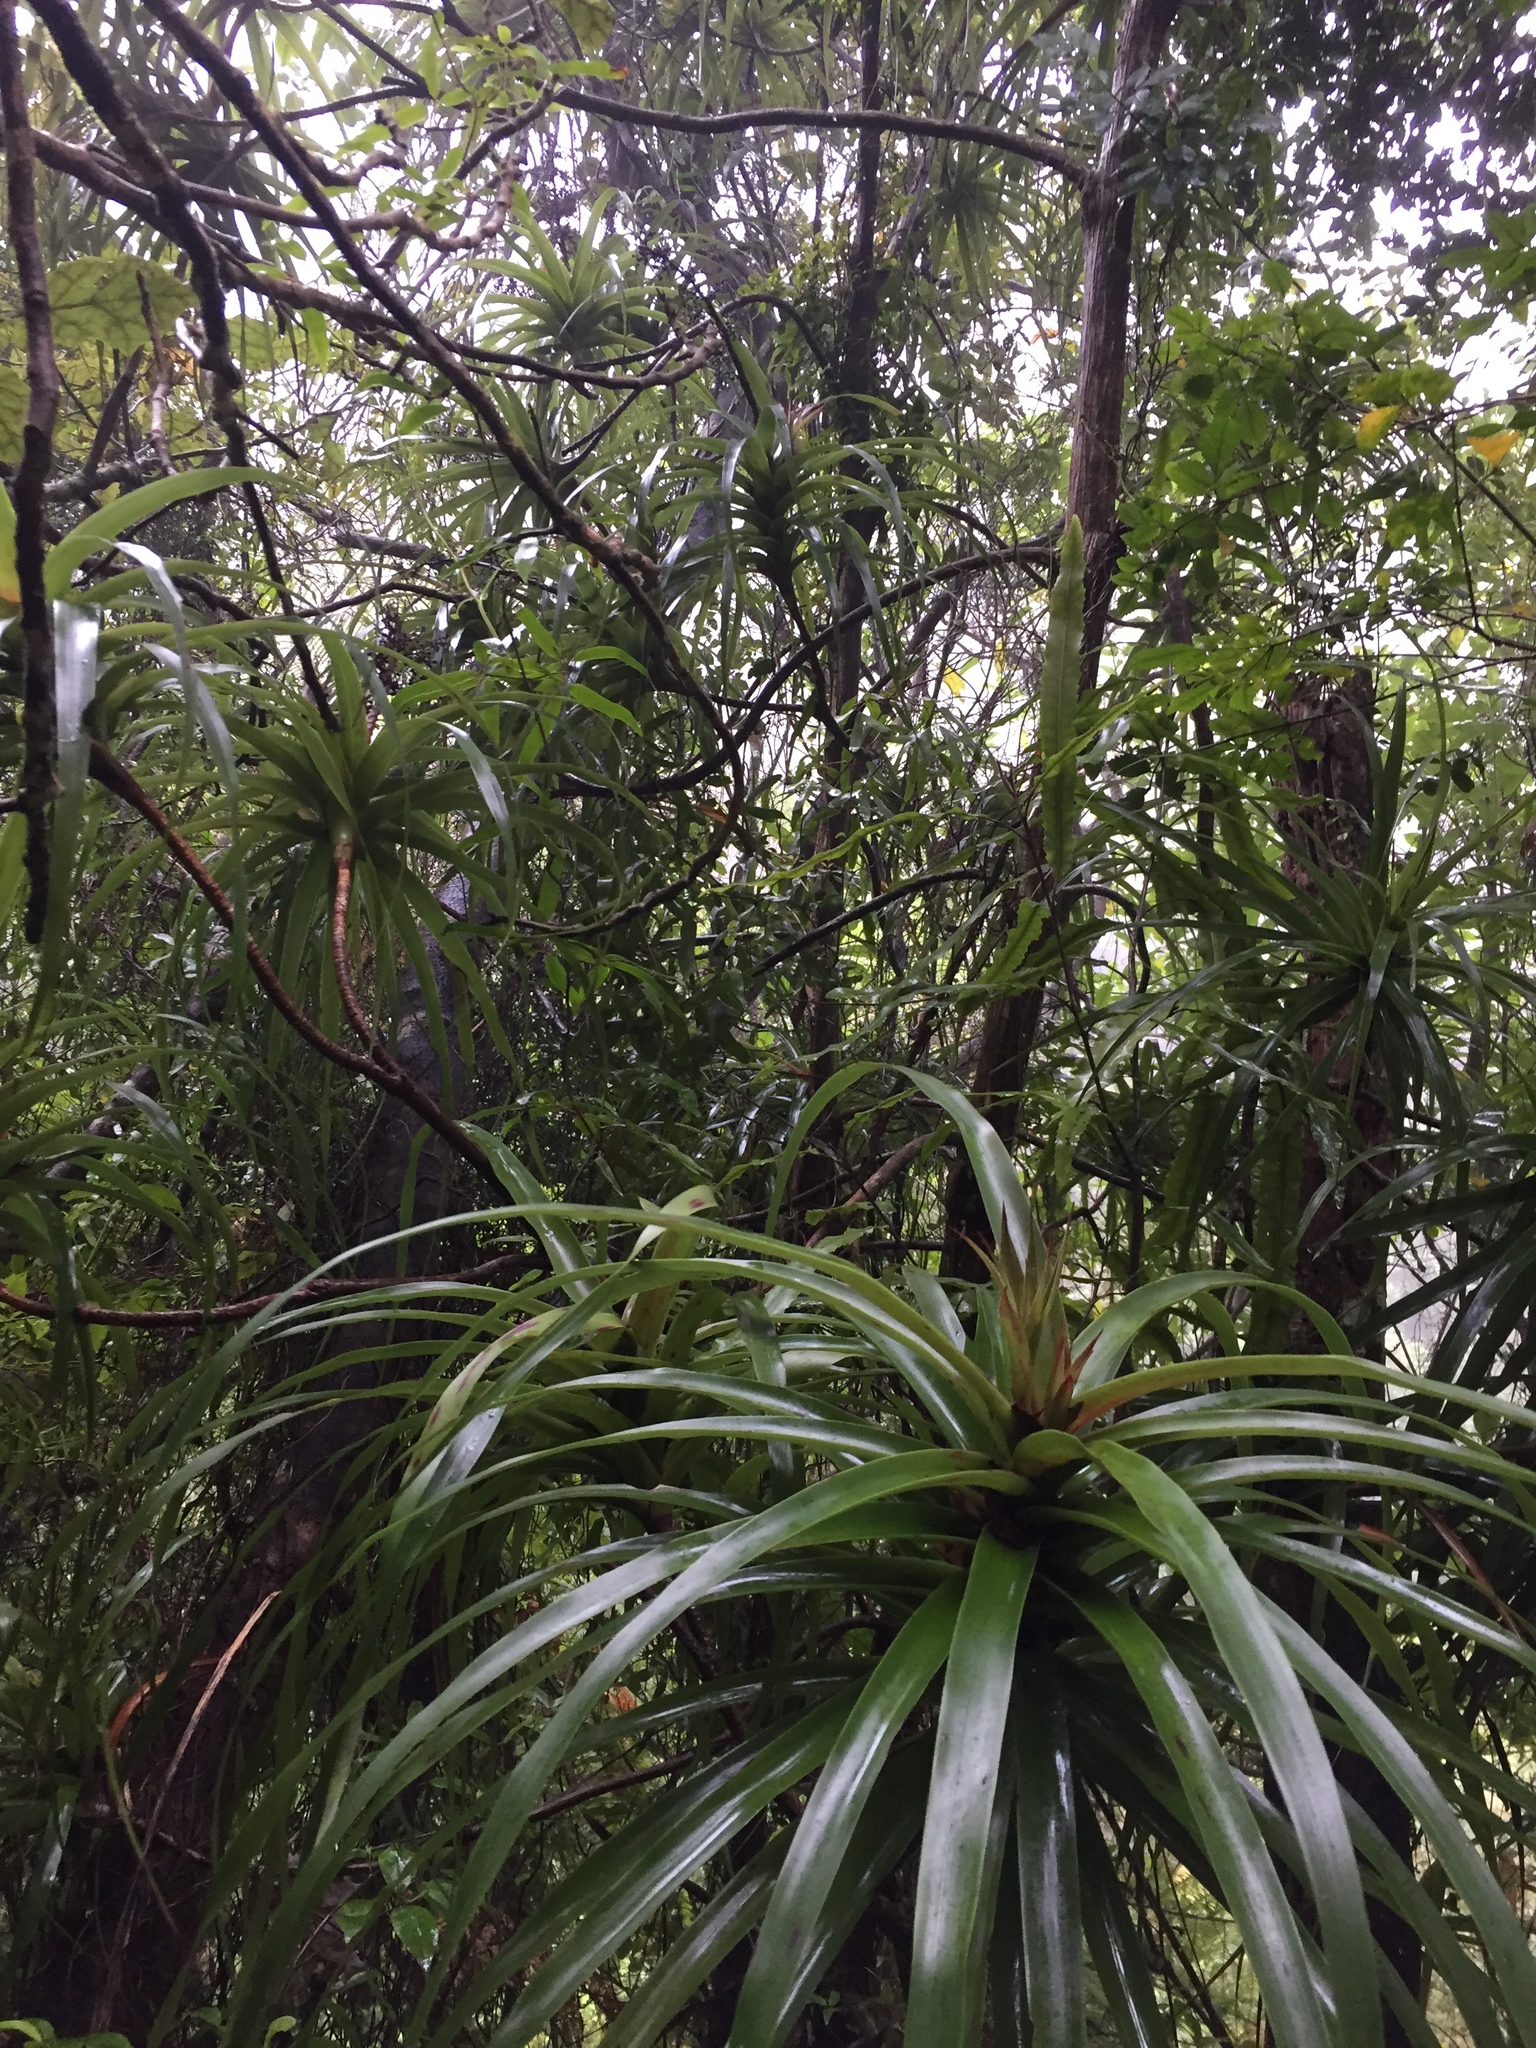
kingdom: Plantae
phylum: Tracheophyta
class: Magnoliopsida
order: Ericales
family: Ericaceae
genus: Dracophyllum
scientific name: Dracophyllum latifolium
